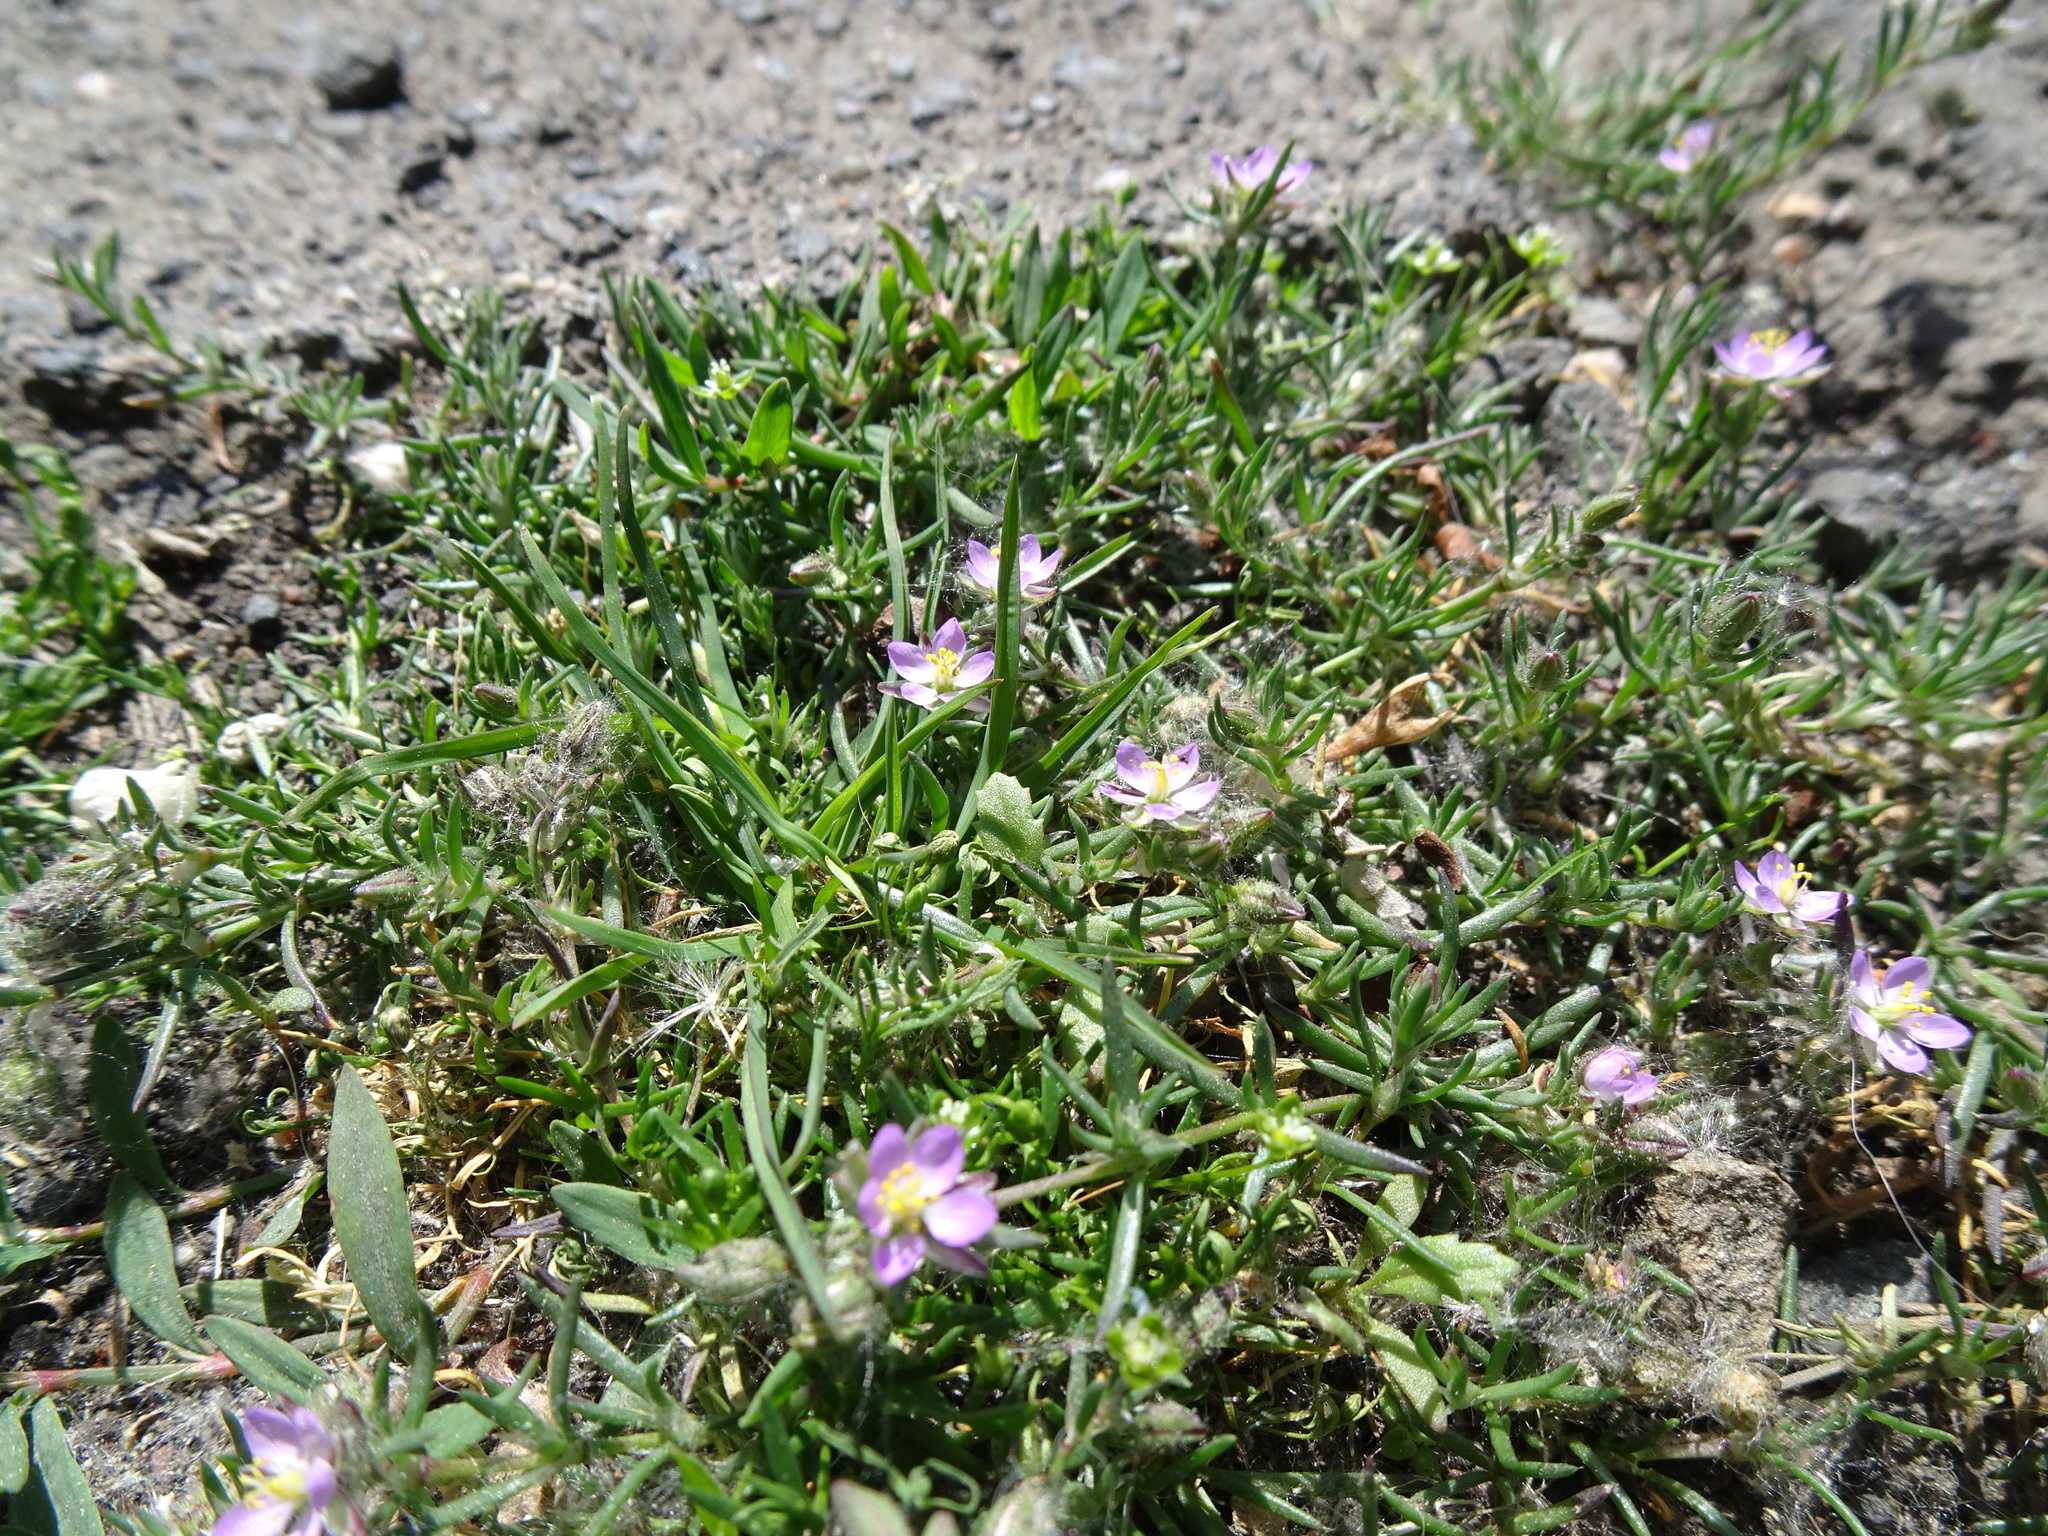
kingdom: Plantae
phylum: Tracheophyta
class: Magnoliopsida
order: Caryophyllales
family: Caryophyllaceae
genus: Spergularia
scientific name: Spergularia rubra
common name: Red sand-spurrey
